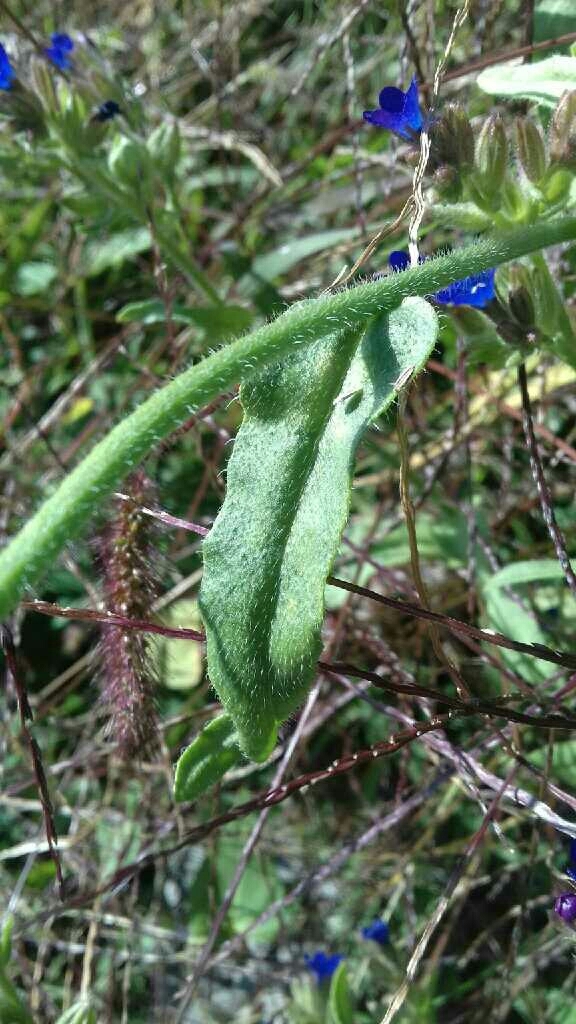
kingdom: Plantae
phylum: Tracheophyta
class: Magnoliopsida
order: Boraginales
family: Boraginaceae
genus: Anchusa
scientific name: Anchusa officinalis
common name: Alkanet
